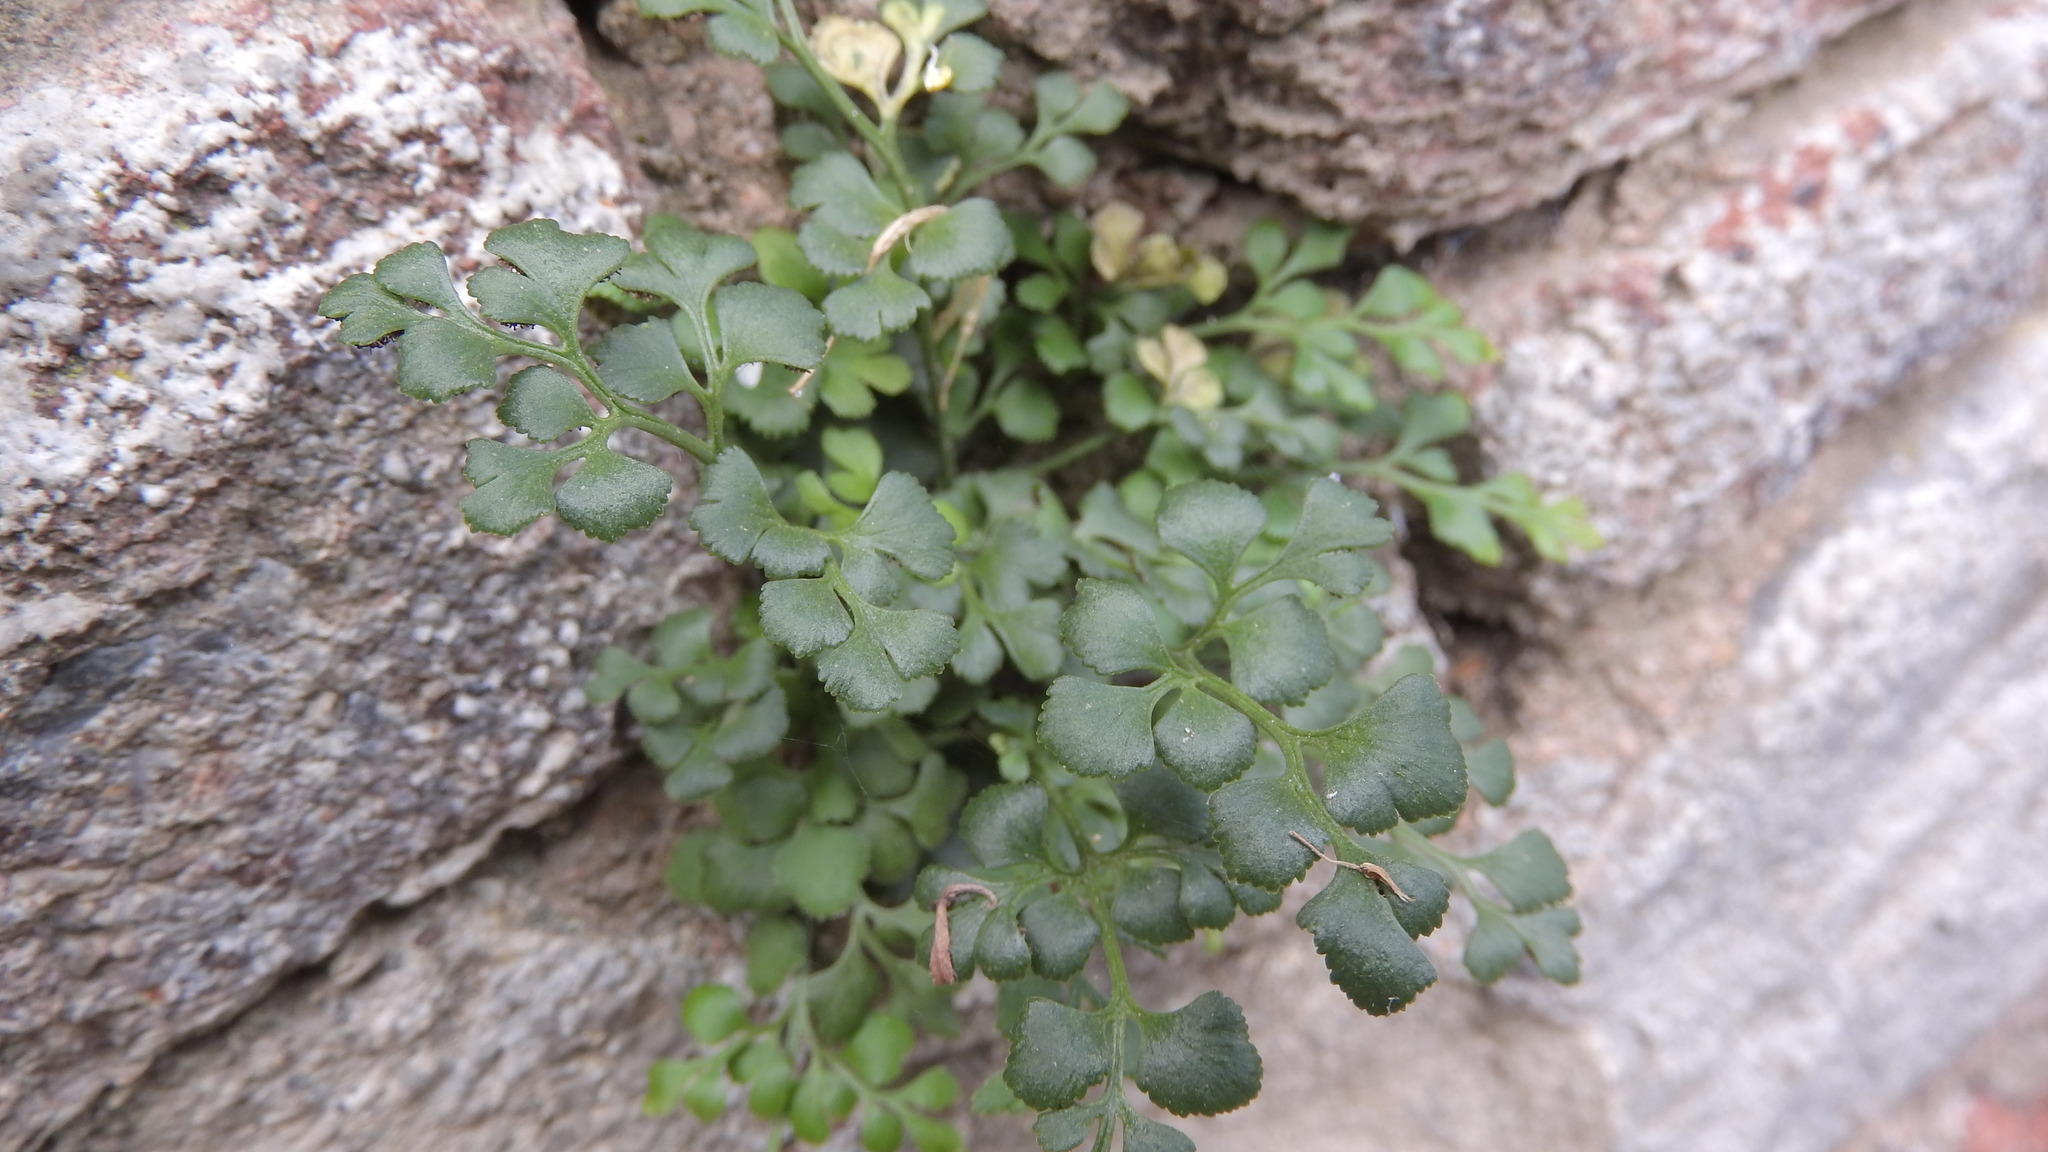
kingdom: Plantae
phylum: Tracheophyta
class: Polypodiopsida
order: Polypodiales
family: Aspleniaceae
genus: Asplenium
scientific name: Asplenium ruta-muraria
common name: Wall-rue
